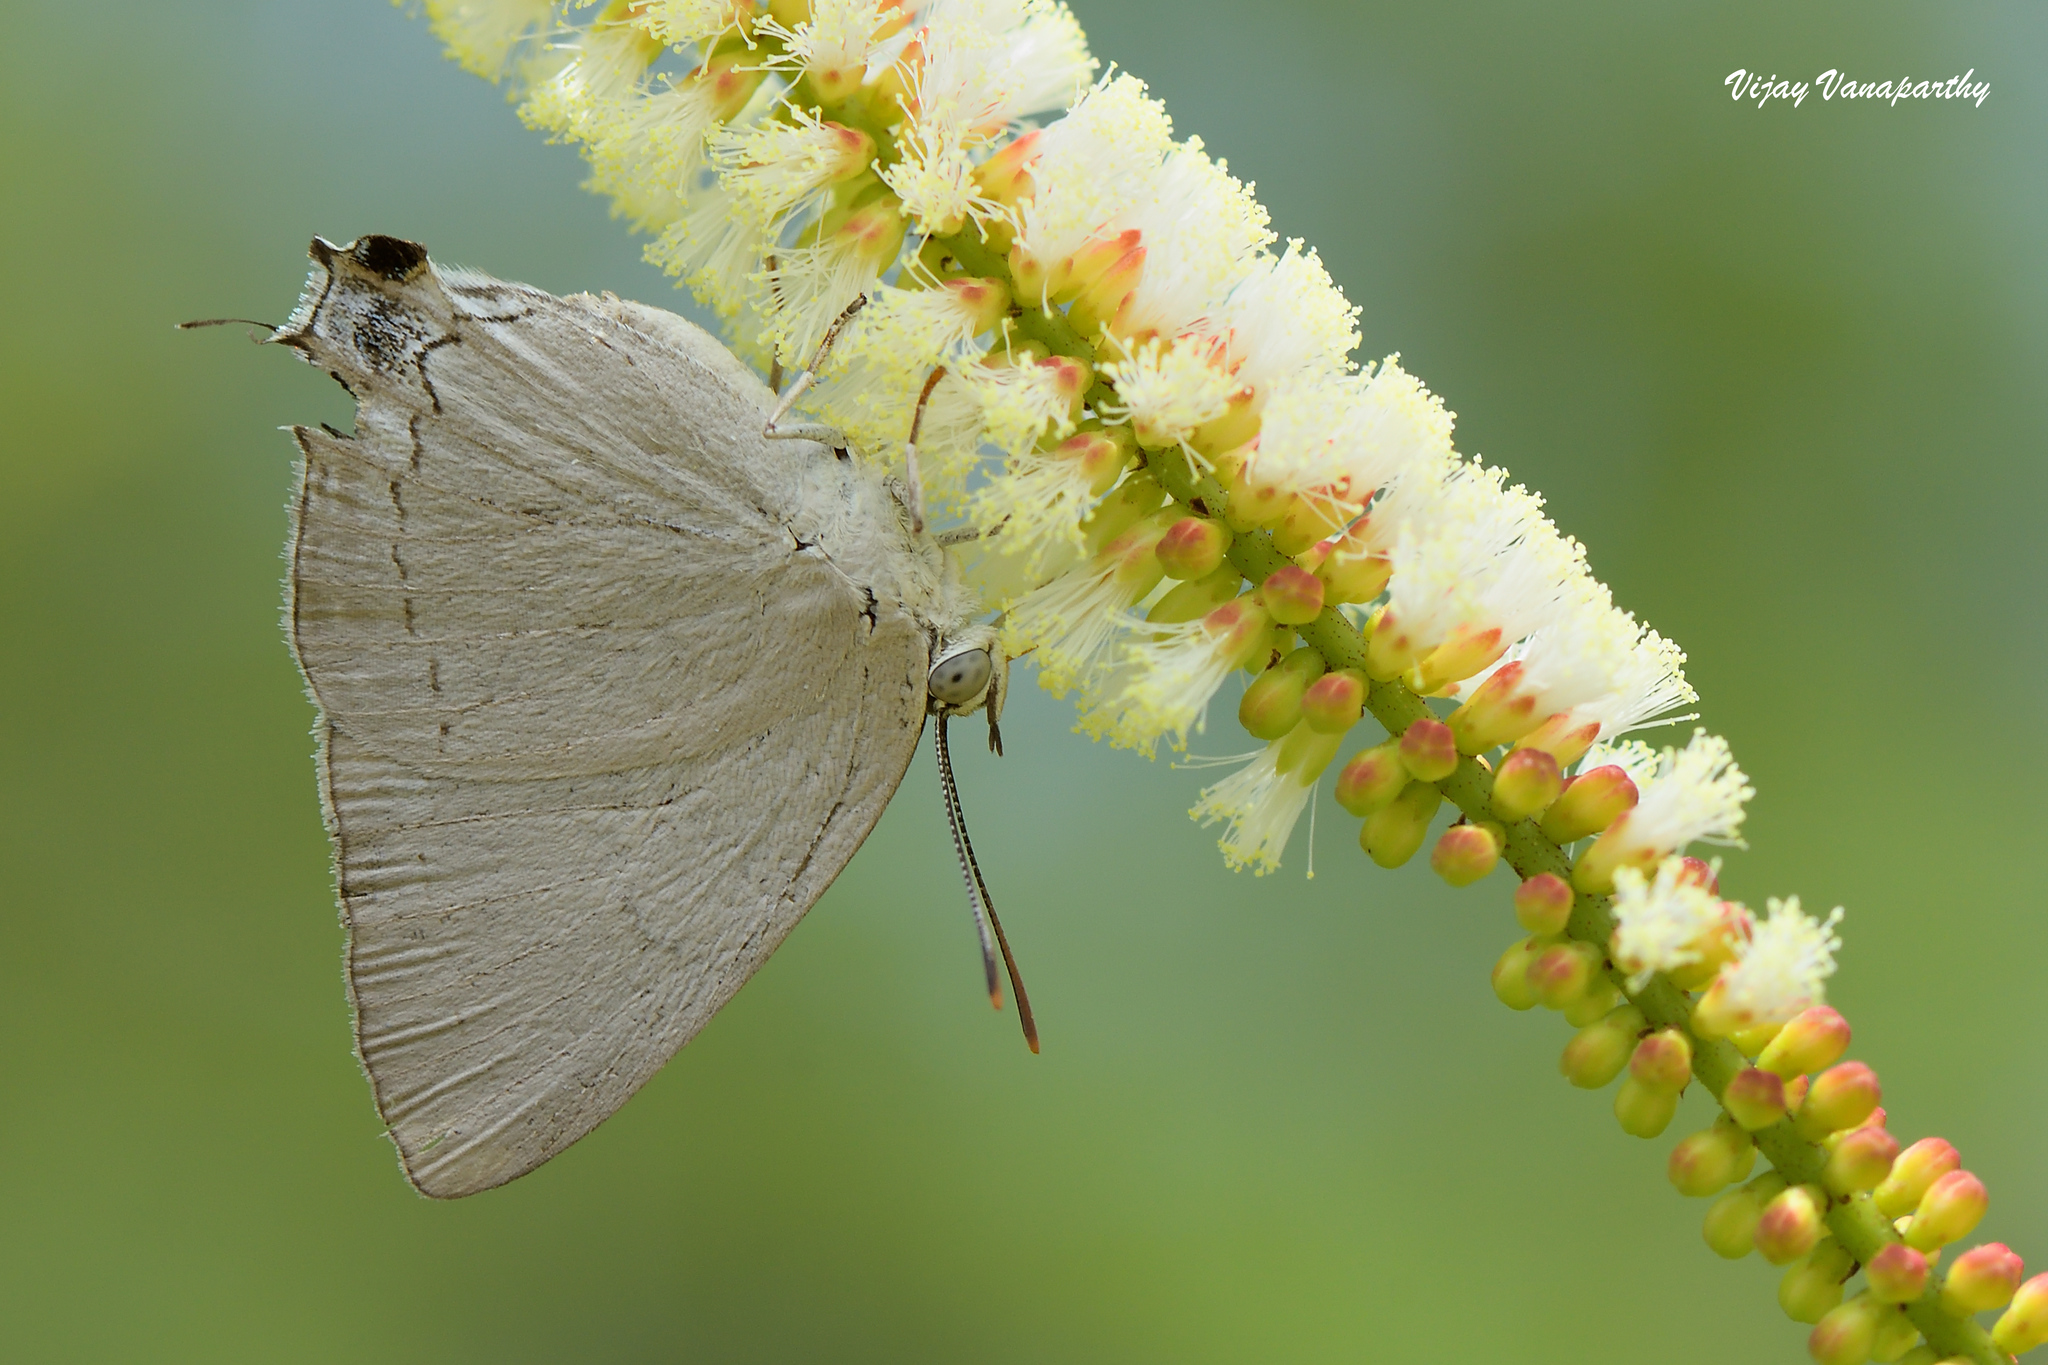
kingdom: Animalia
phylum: Arthropoda
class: Insecta
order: Lepidoptera
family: Lycaenidae
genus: Tajuria
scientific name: Tajuria jehana
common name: Plains blue royal
